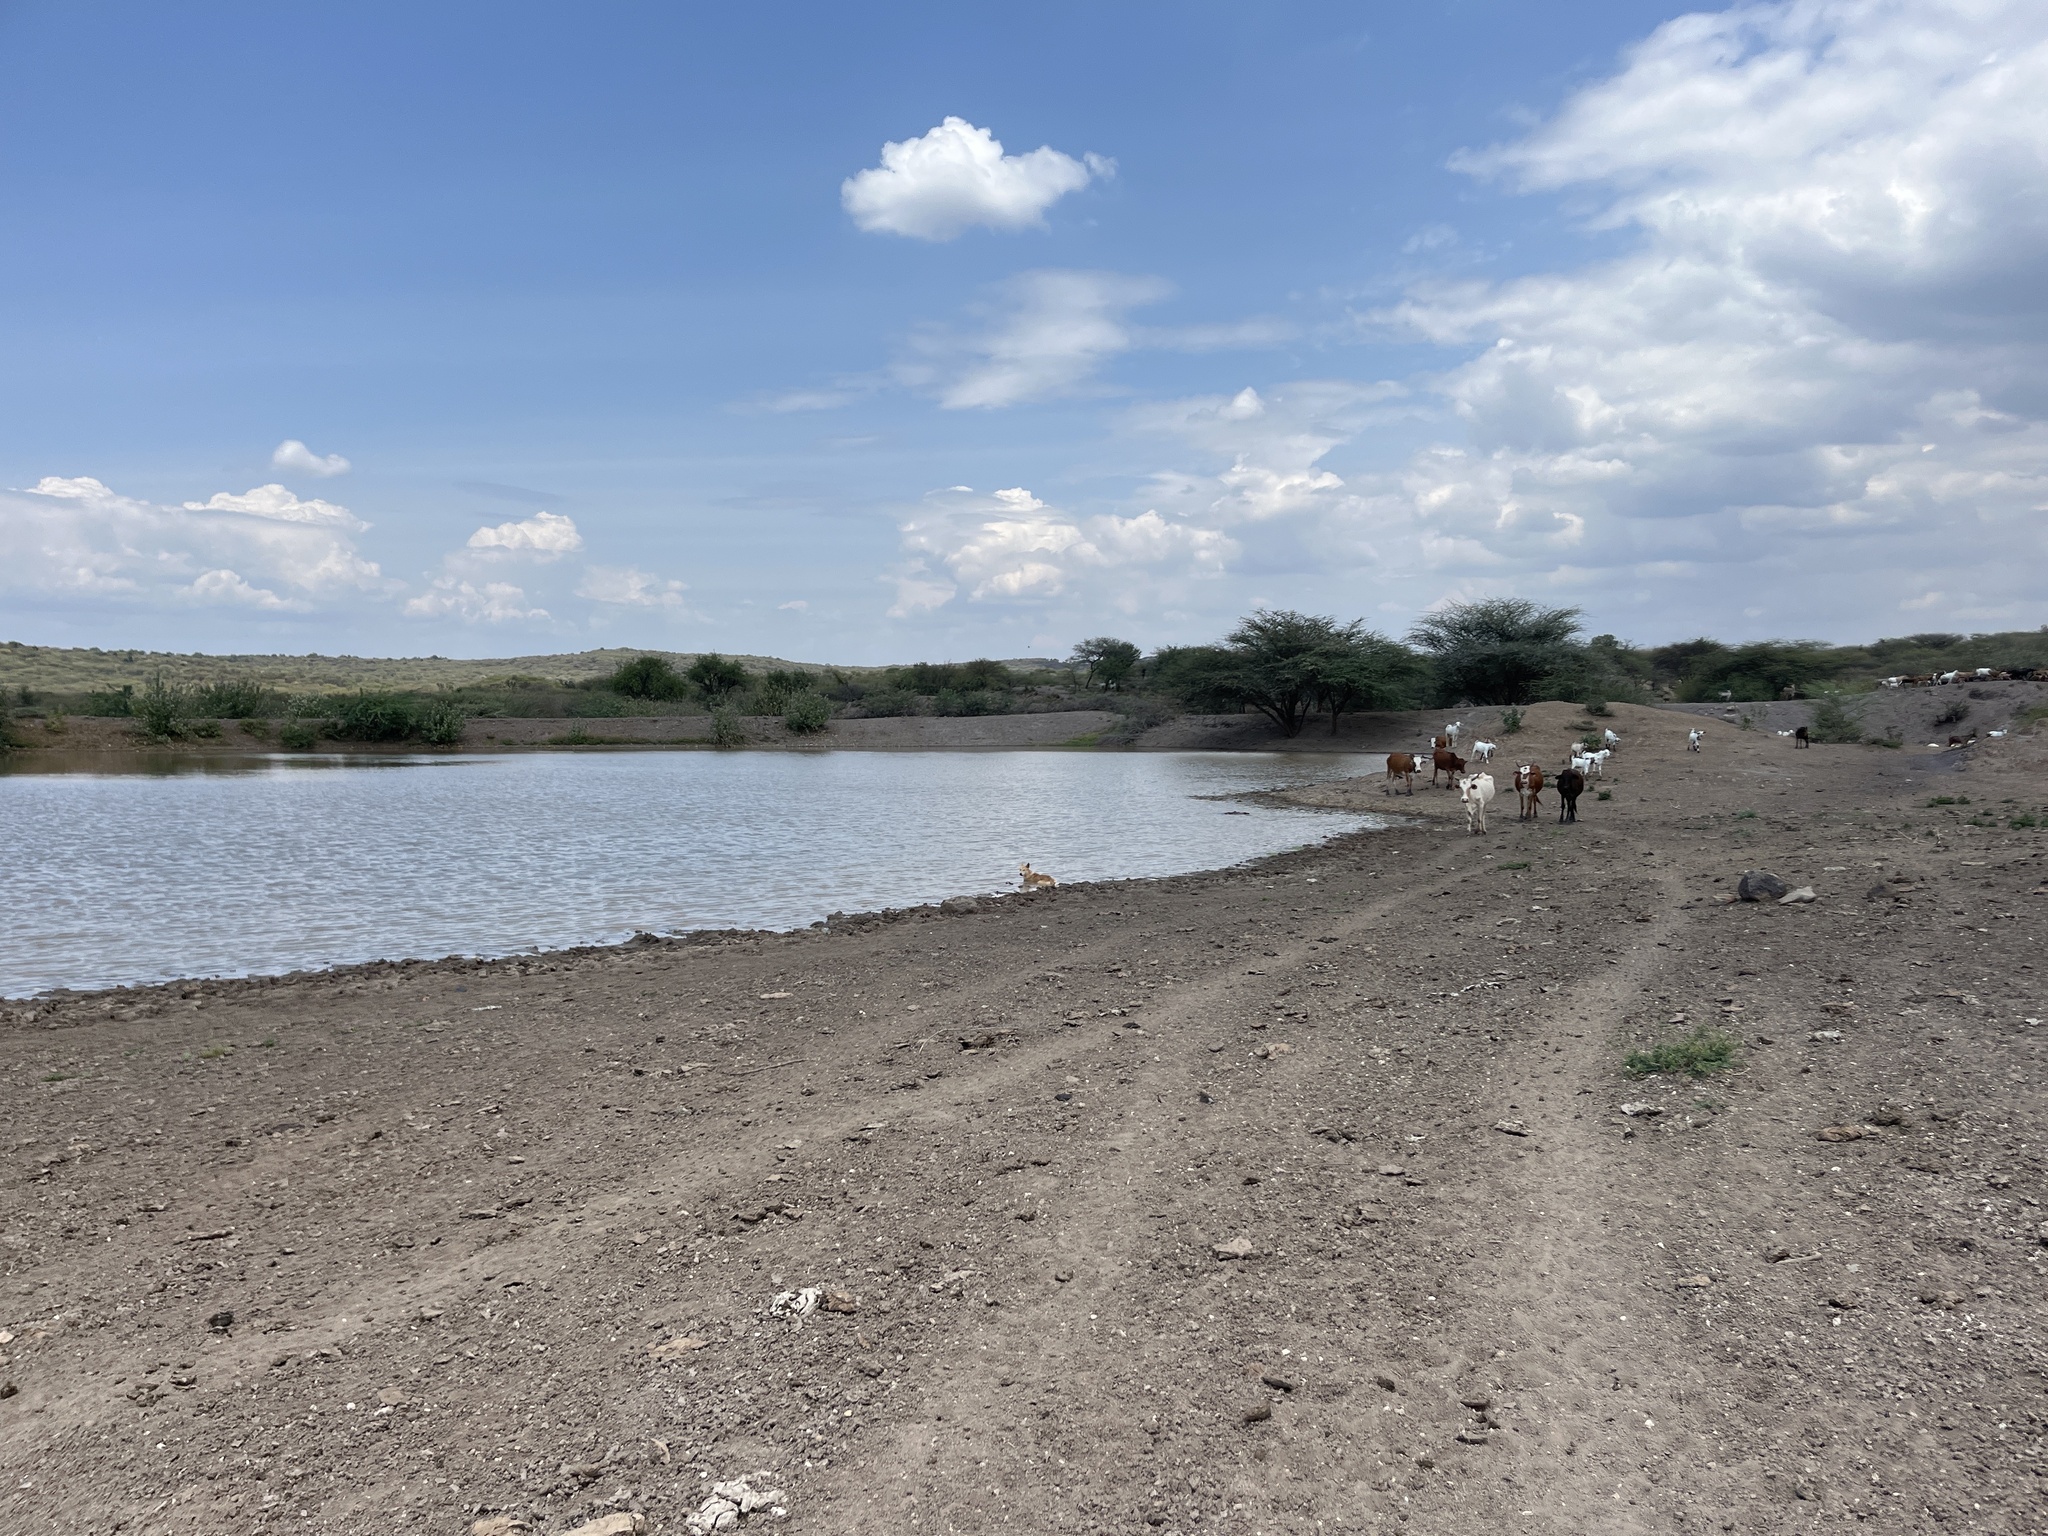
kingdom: Animalia
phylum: Chordata
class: Mammalia
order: Artiodactyla
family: Bovidae
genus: Bos
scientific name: Bos taurus
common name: Domesticated cattle
